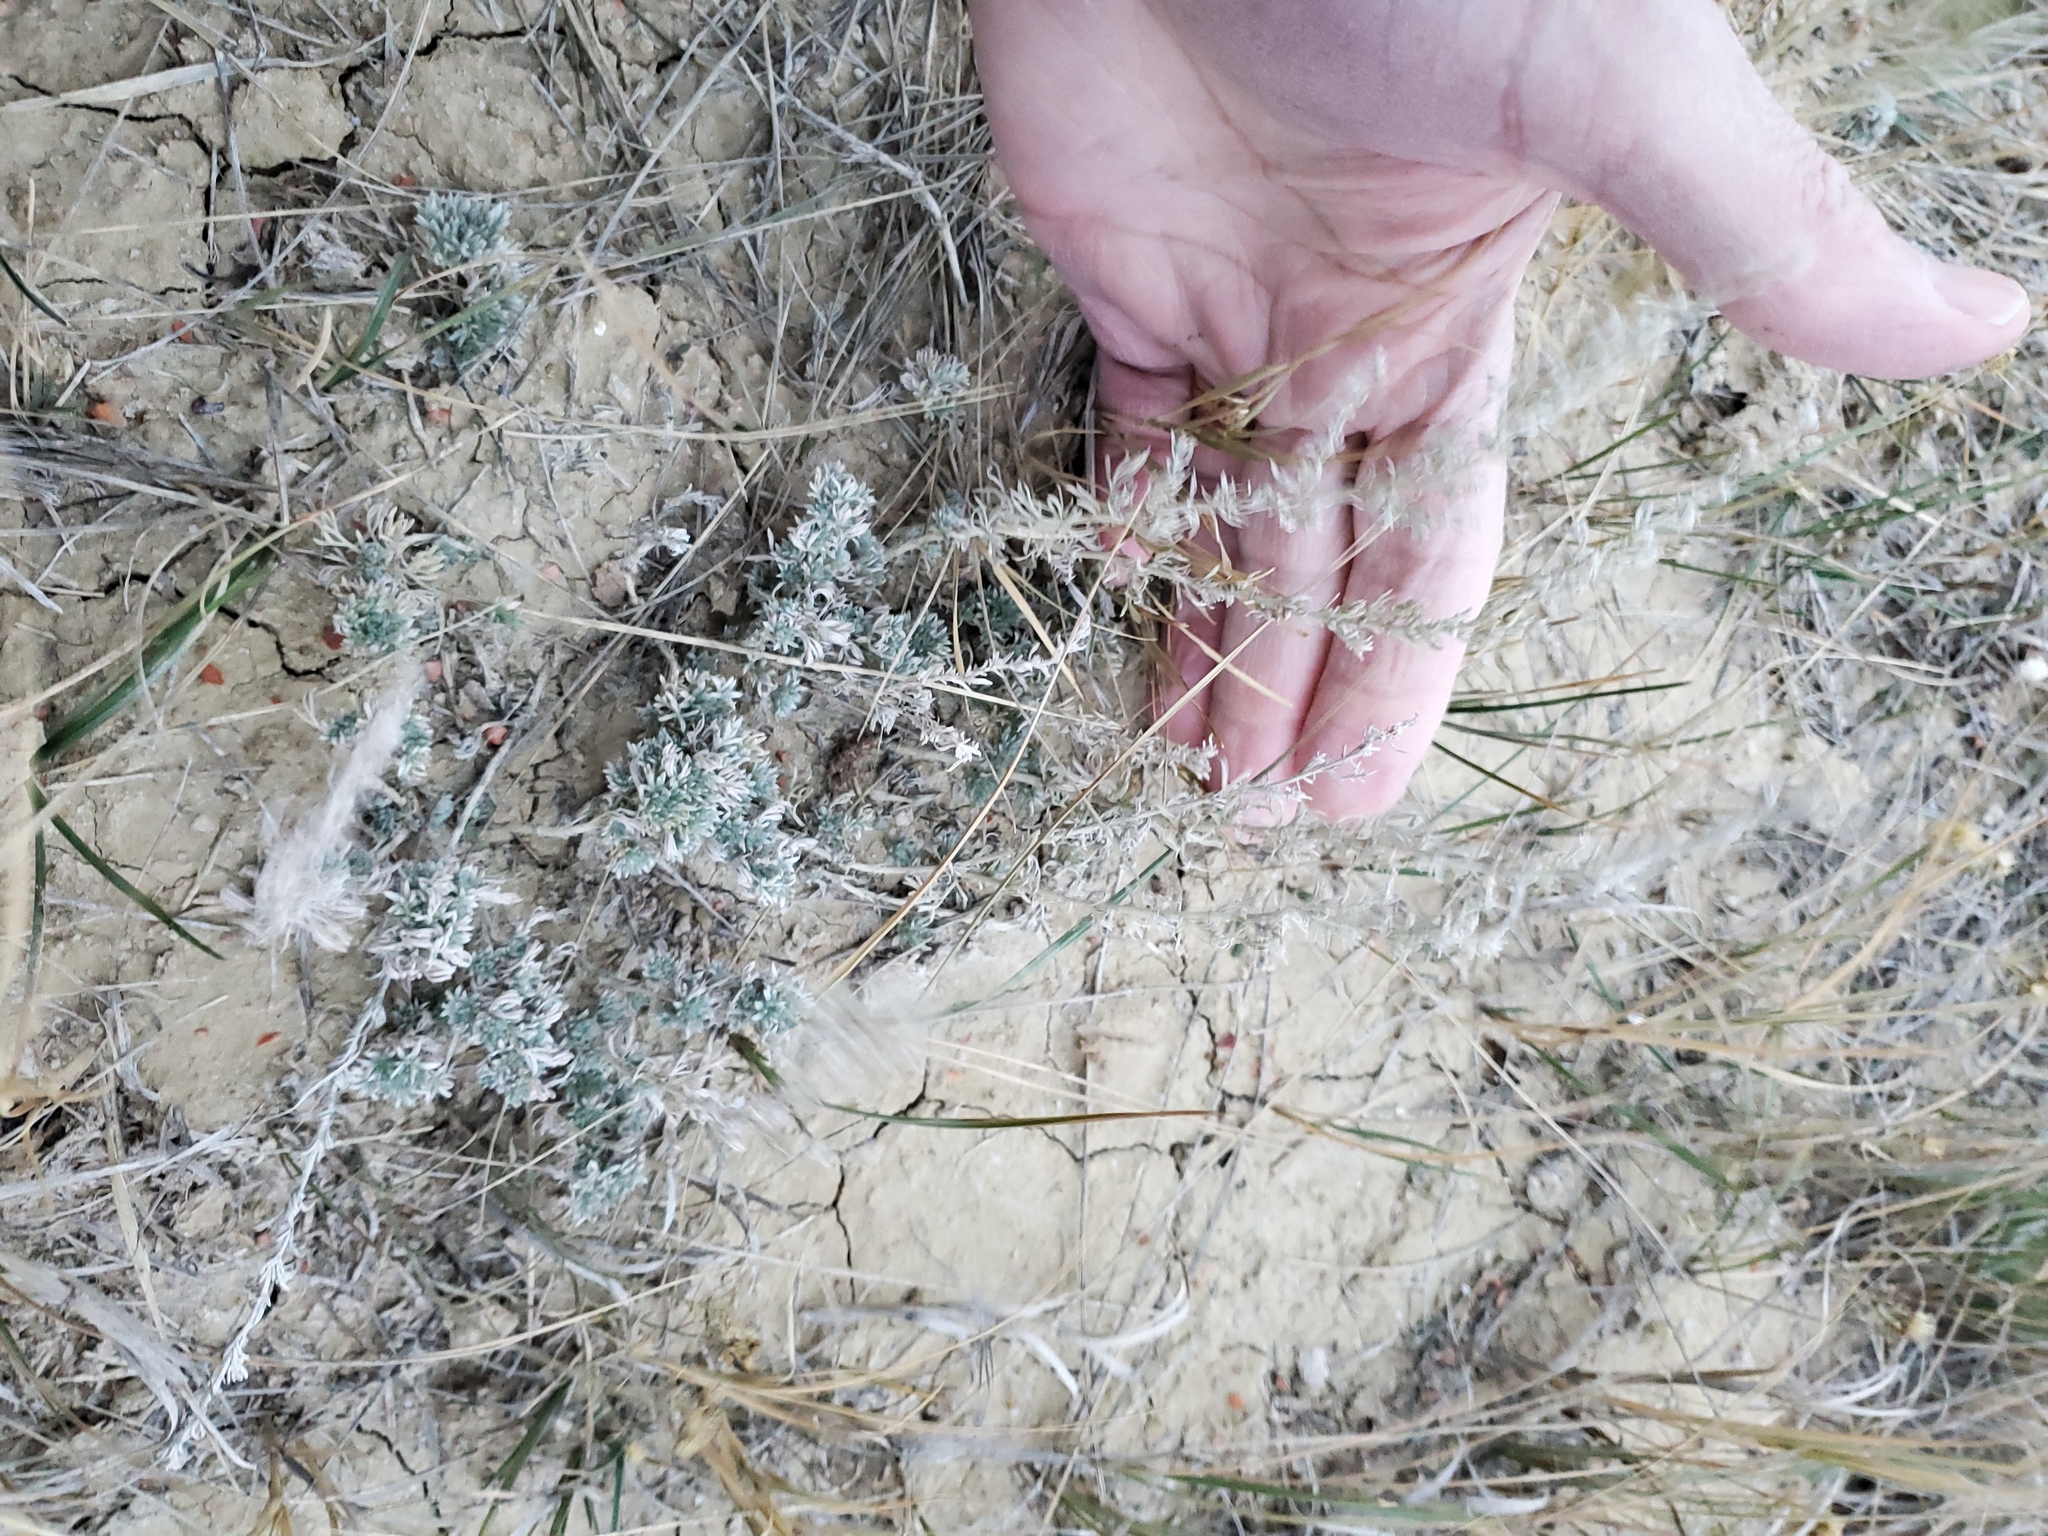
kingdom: Plantae
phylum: Tracheophyta
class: Magnoliopsida
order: Asterales
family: Asteraceae
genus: Artemisia
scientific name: Artemisia frigida
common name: Prairie sagewort
